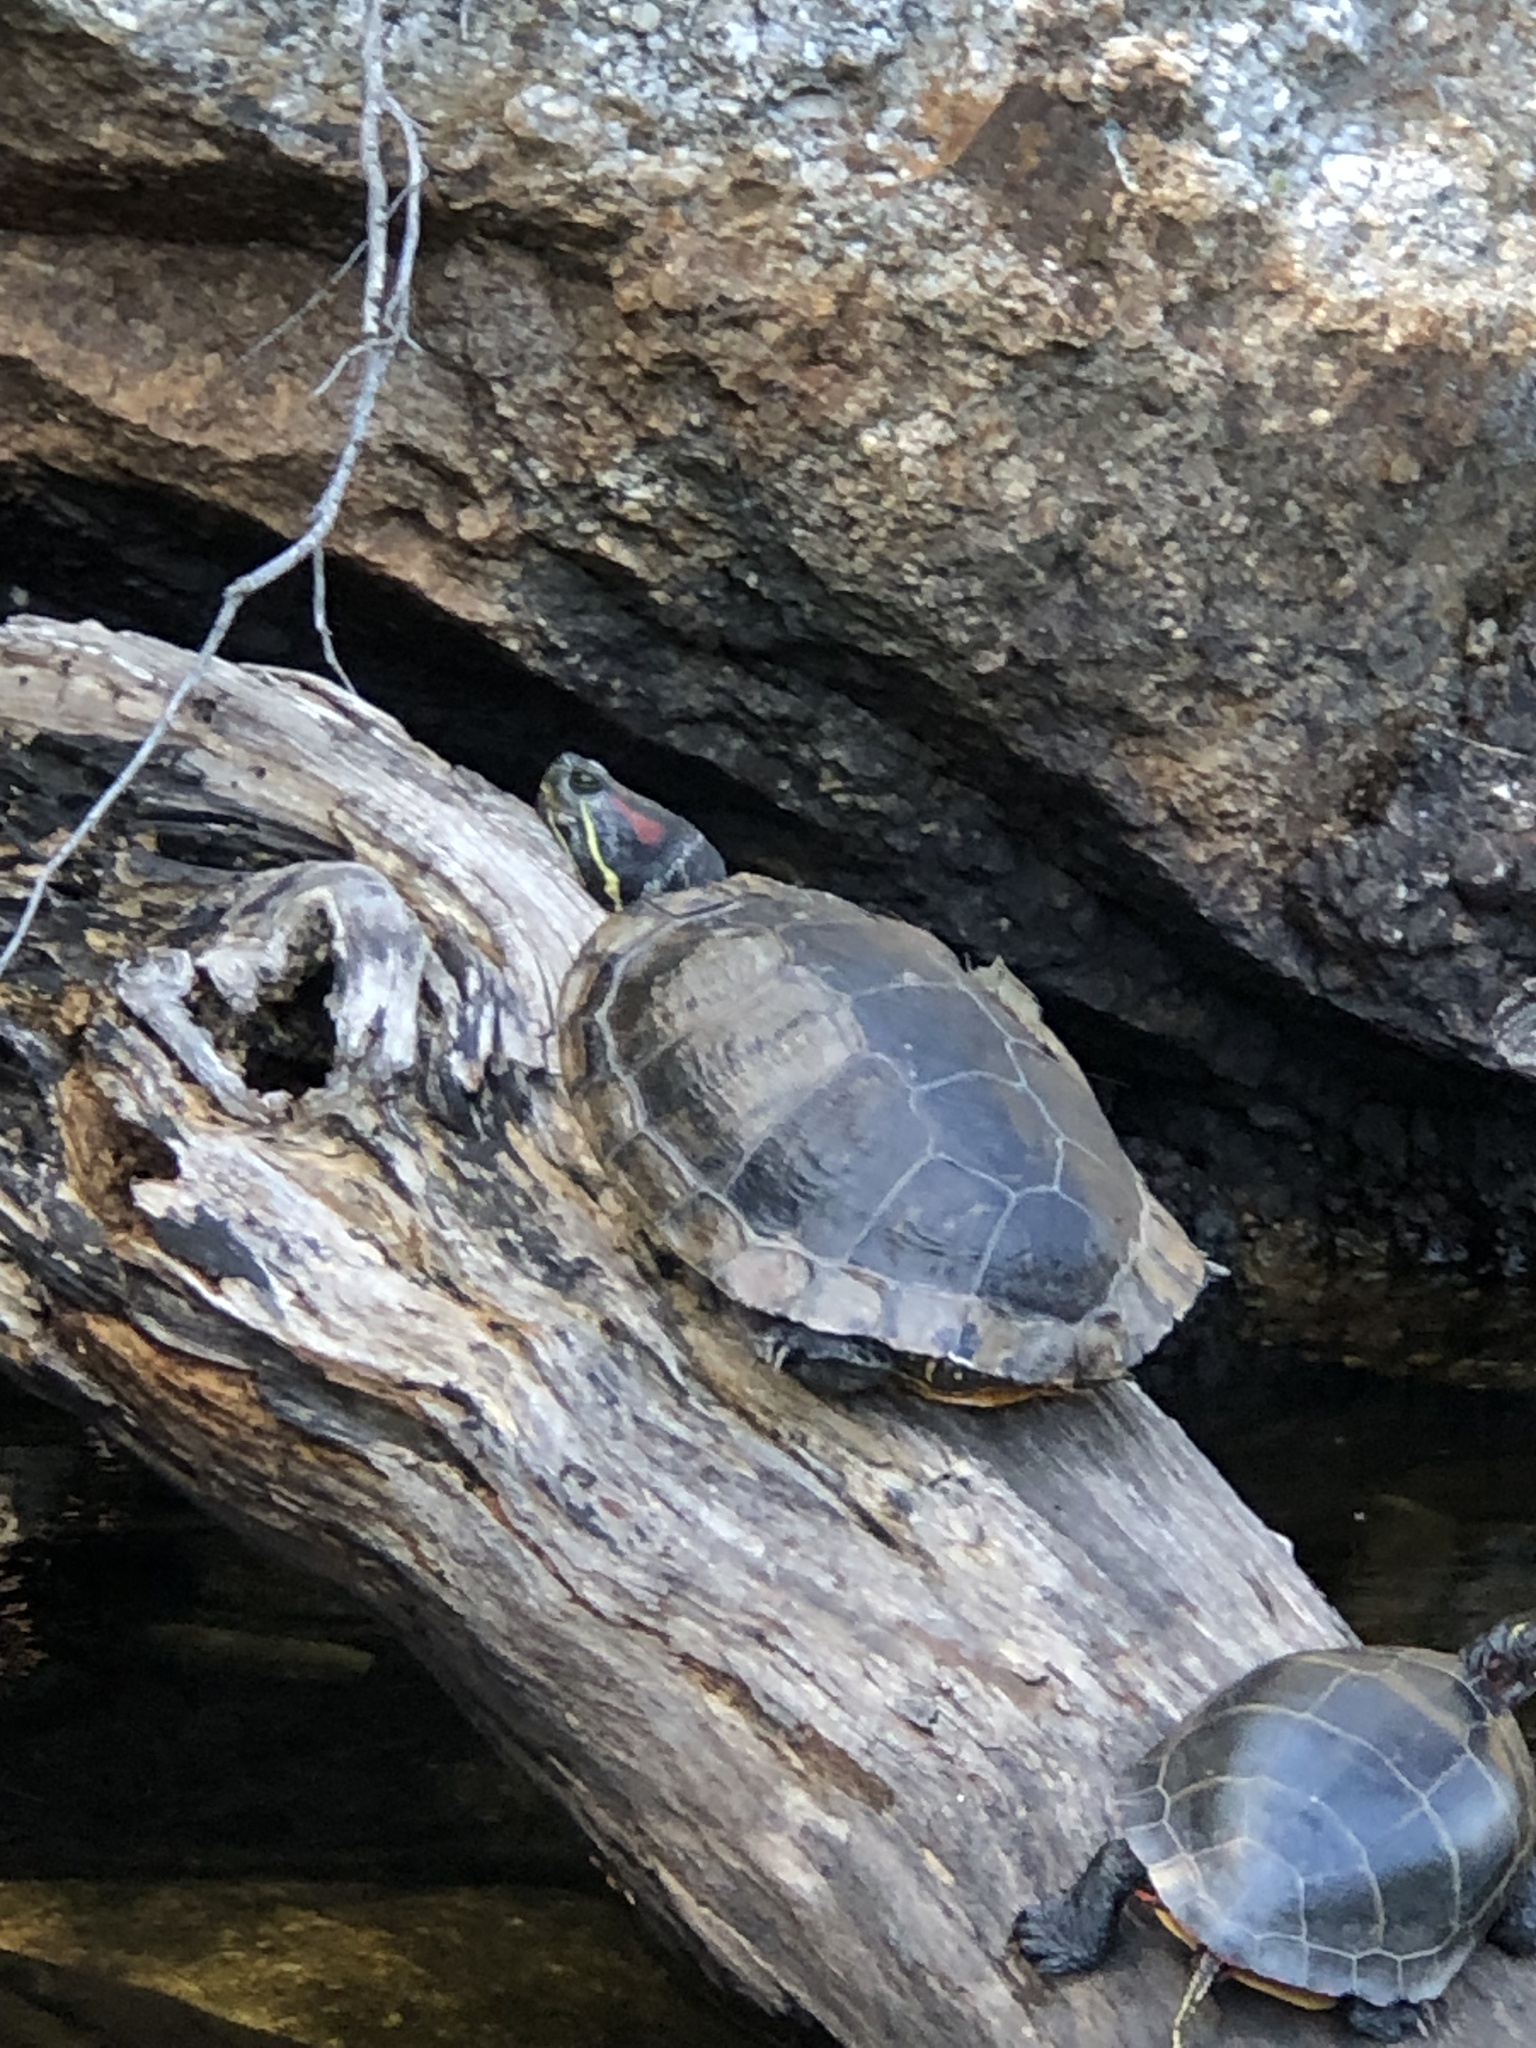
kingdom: Animalia
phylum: Chordata
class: Testudines
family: Emydidae
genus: Trachemys
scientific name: Trachemys scripta
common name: Slider
